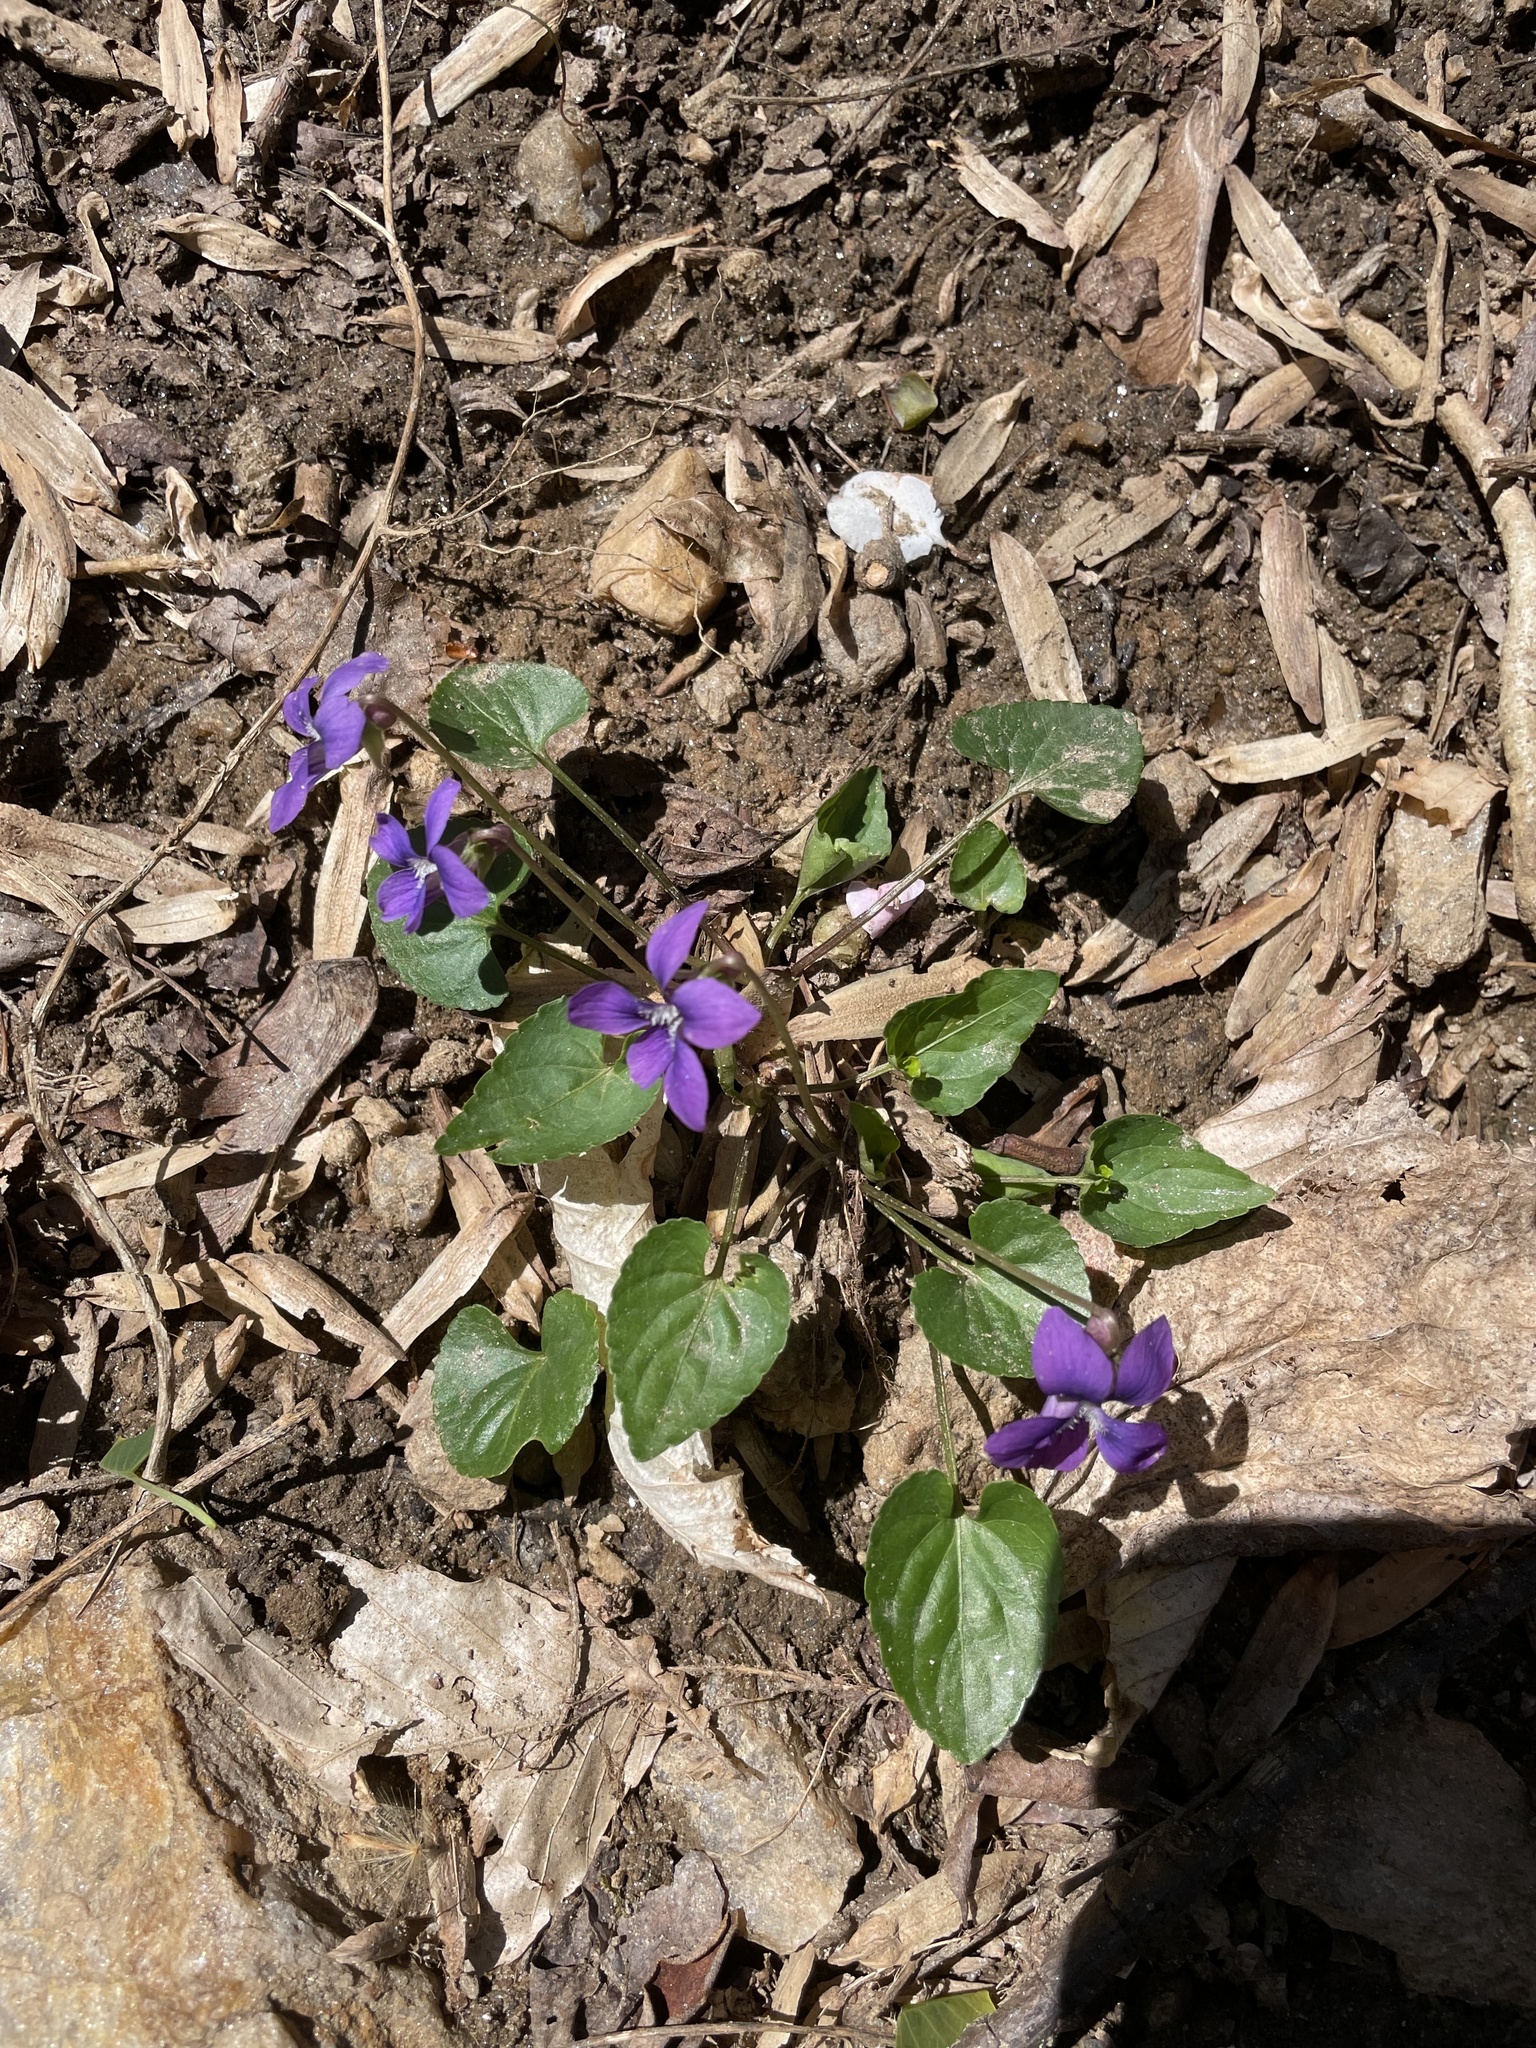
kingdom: Plantae
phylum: Tracheophyta
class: Magnoliopsida
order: Malpighiales
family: Violaceae
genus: Viola
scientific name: Viola sororia
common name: Dooryard violet
